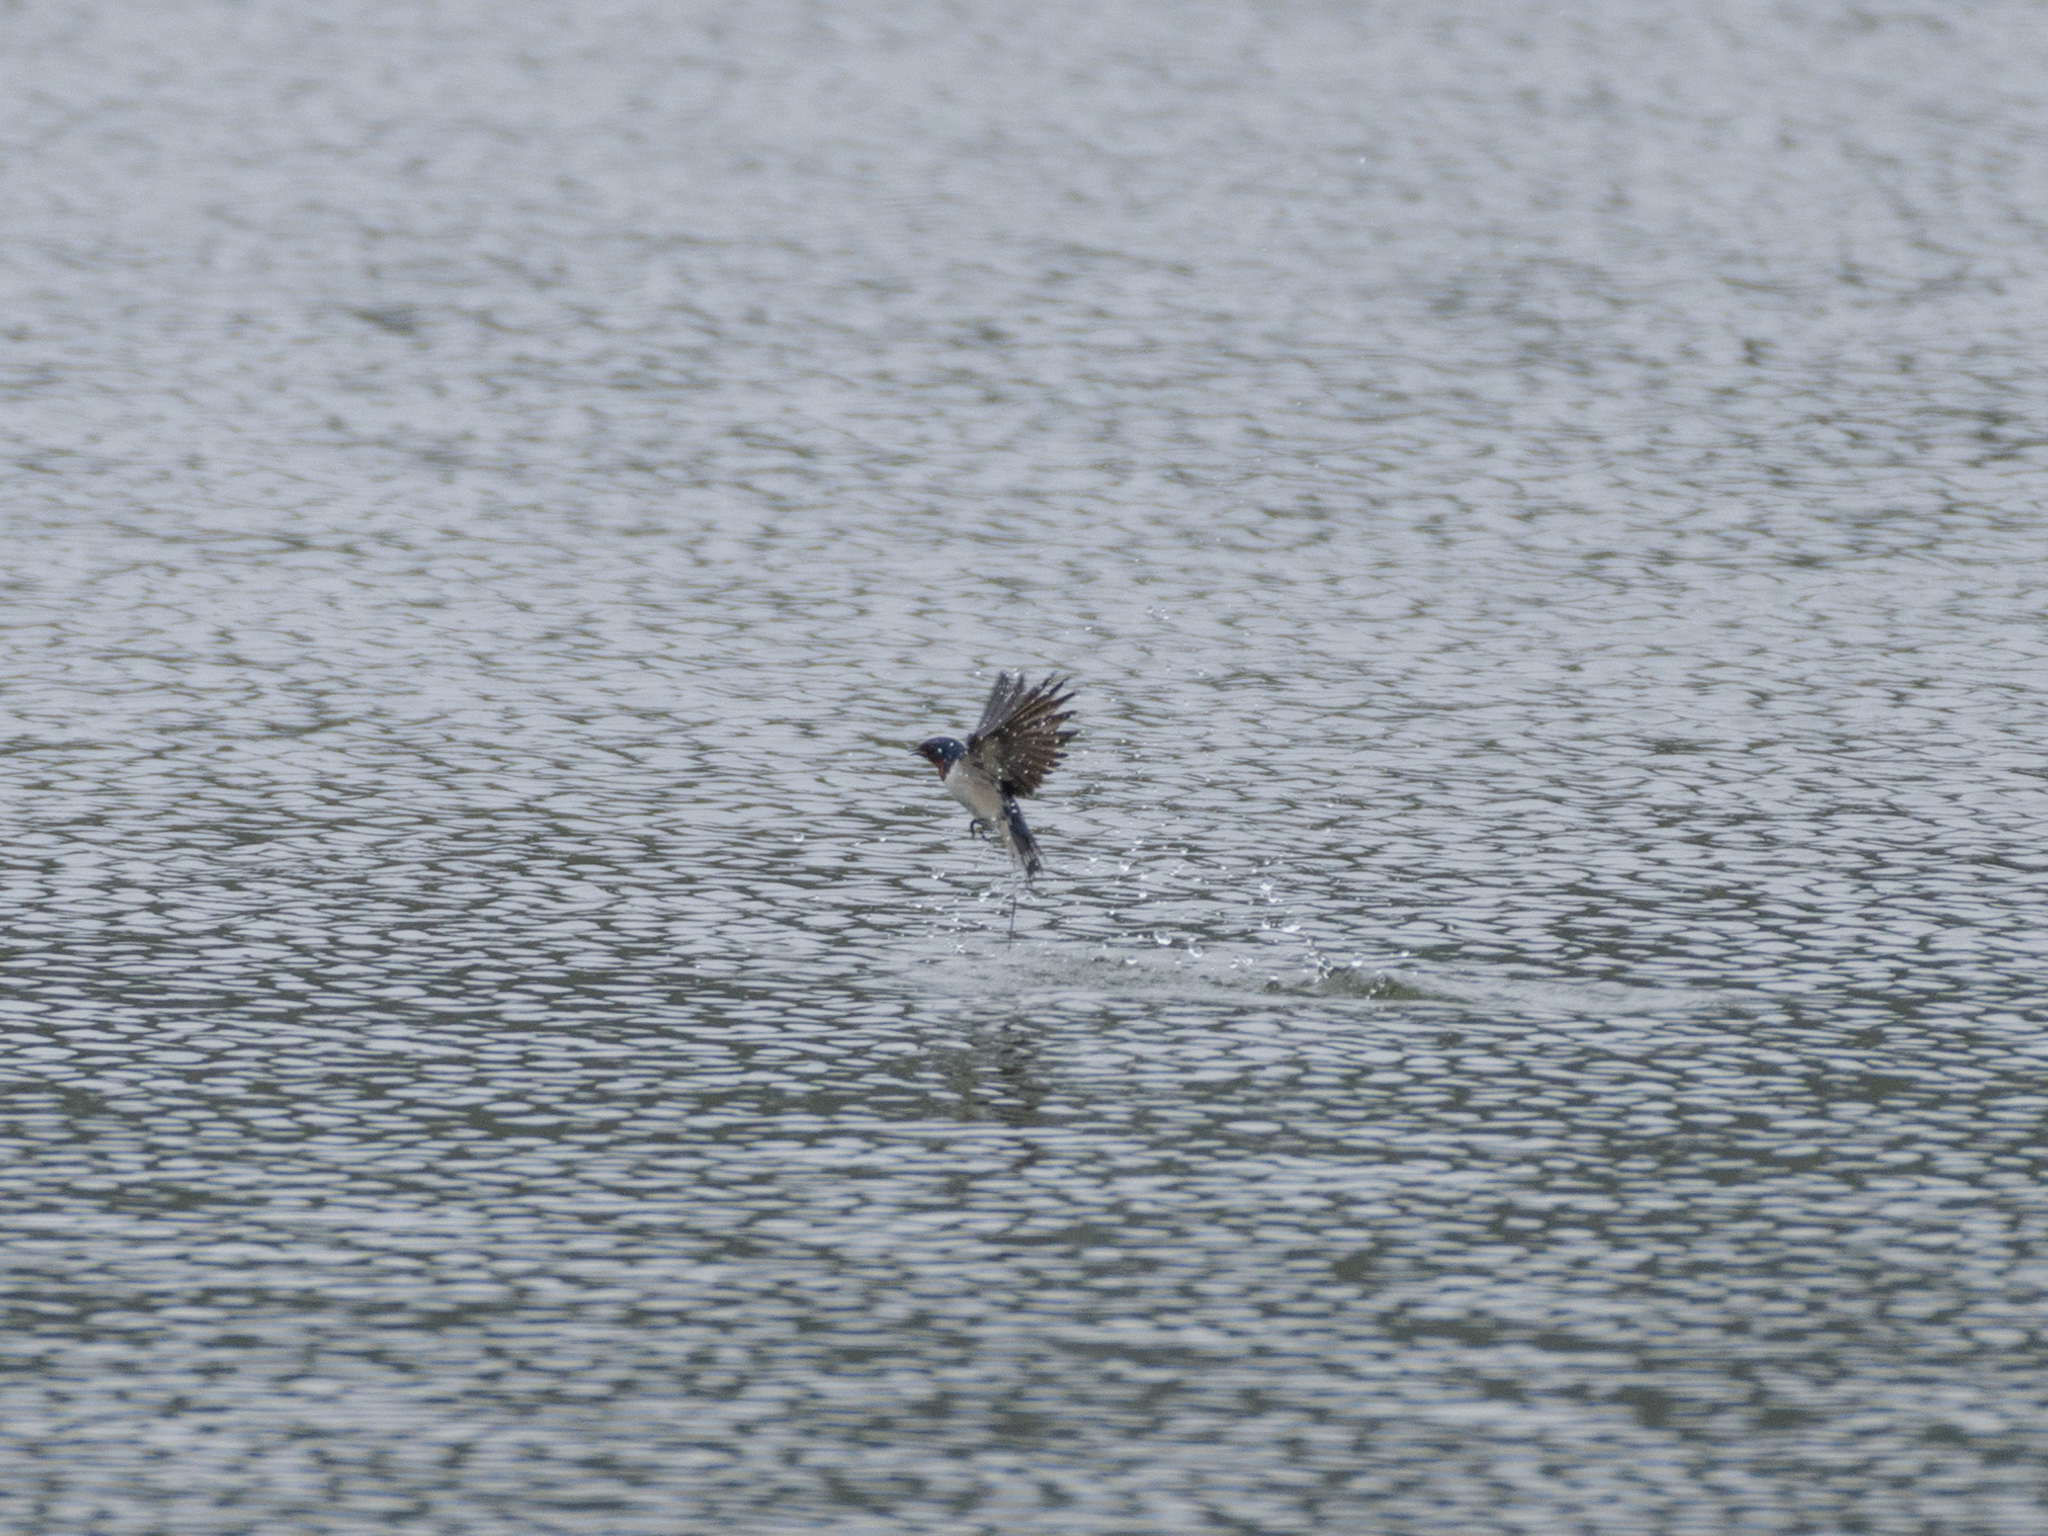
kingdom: Animalia
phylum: Chordata
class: Aves
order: Passeriformes
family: Hirundinidae
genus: Hirundo
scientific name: Hirundo rustica
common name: Barn swallow
